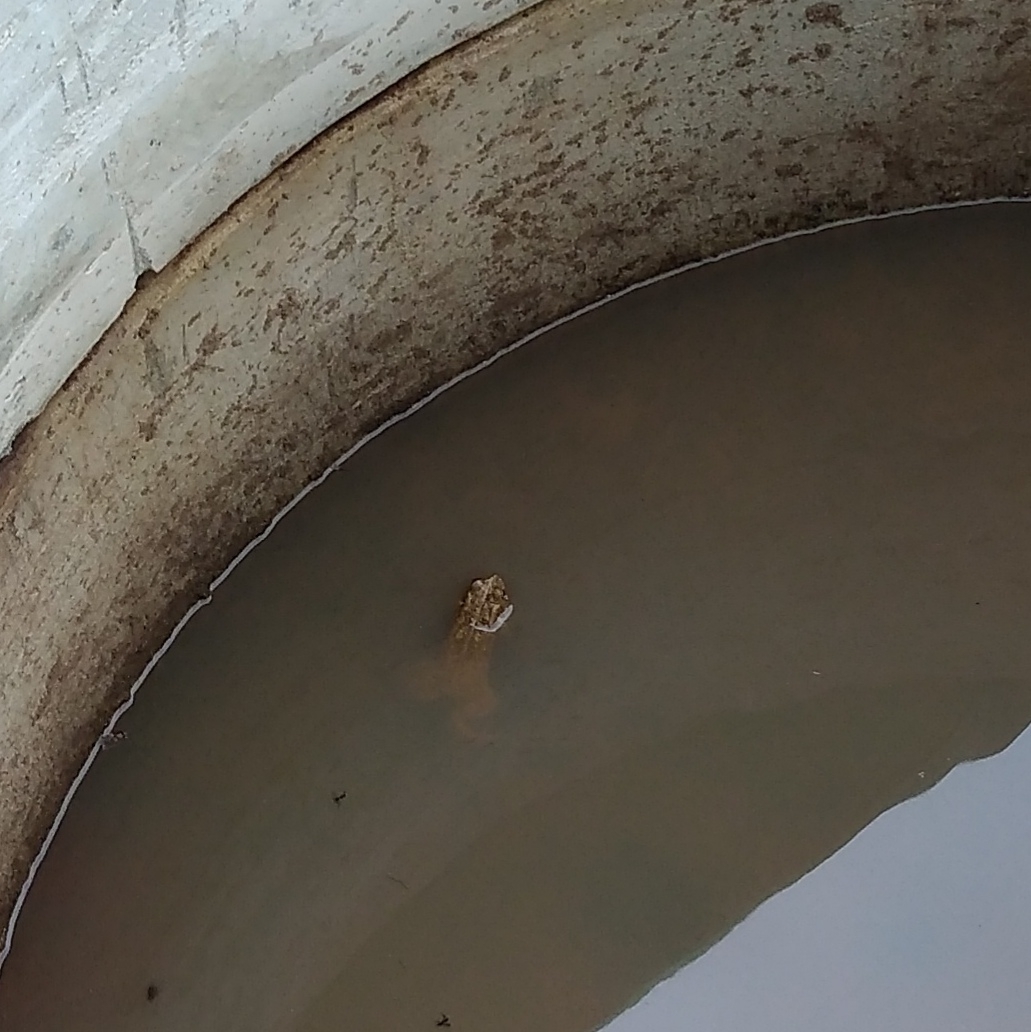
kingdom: Animalia
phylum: Chordata
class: Amphibia
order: Anura
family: Bufonidae
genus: Sclerophrys
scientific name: Sclerophrys gutturalis
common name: African common toad
